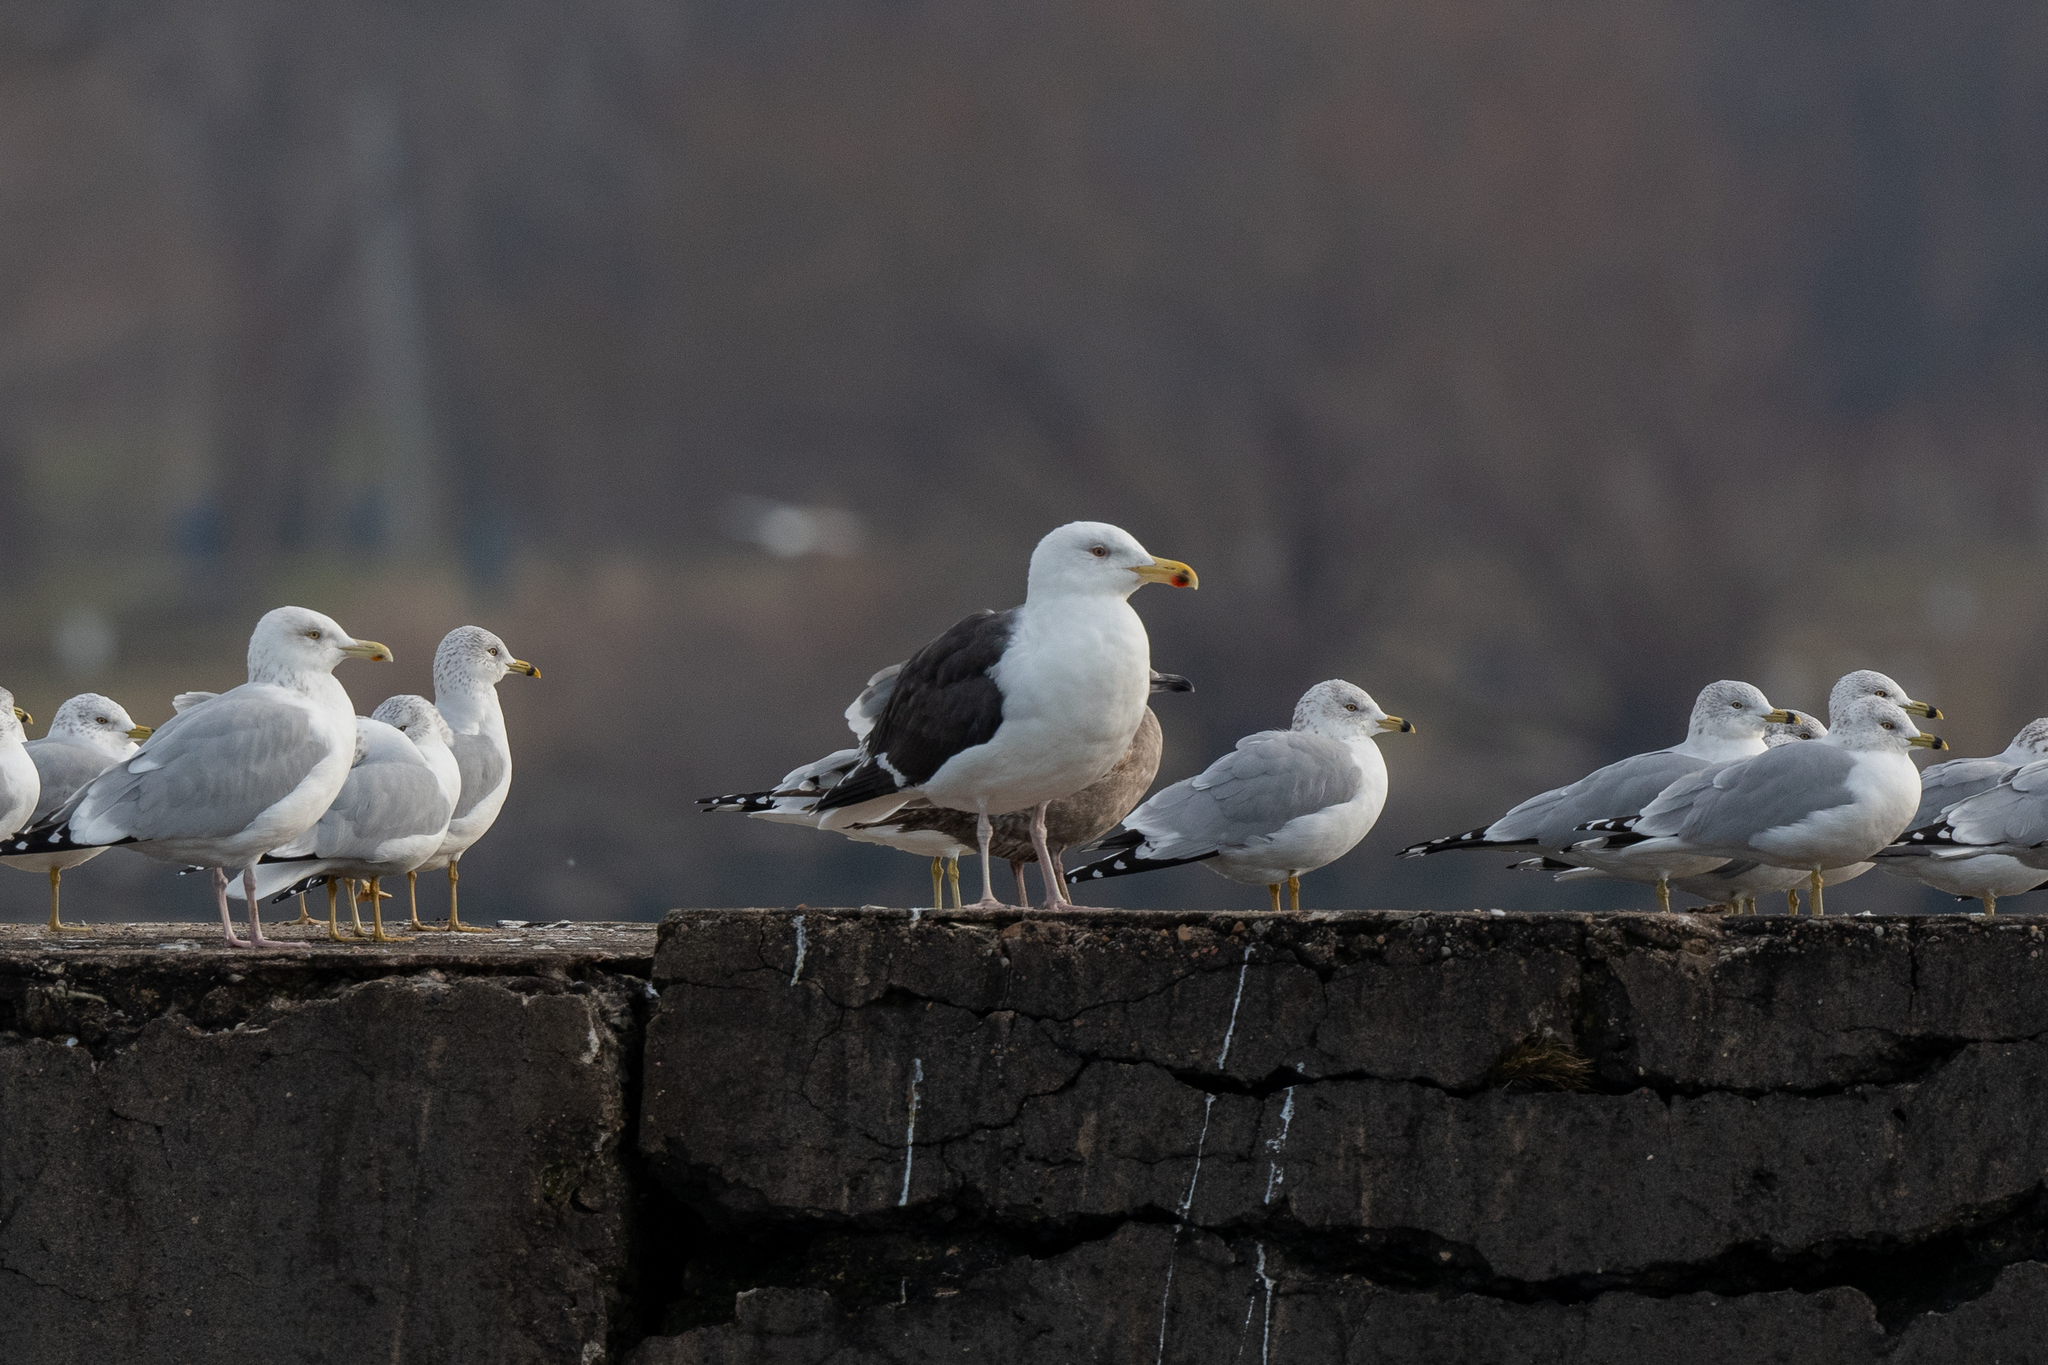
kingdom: Animalia
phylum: Chordata
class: Aves
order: Charadriiformes
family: Laridae
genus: Larus
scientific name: Larus marinus
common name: Great black-backed gull
